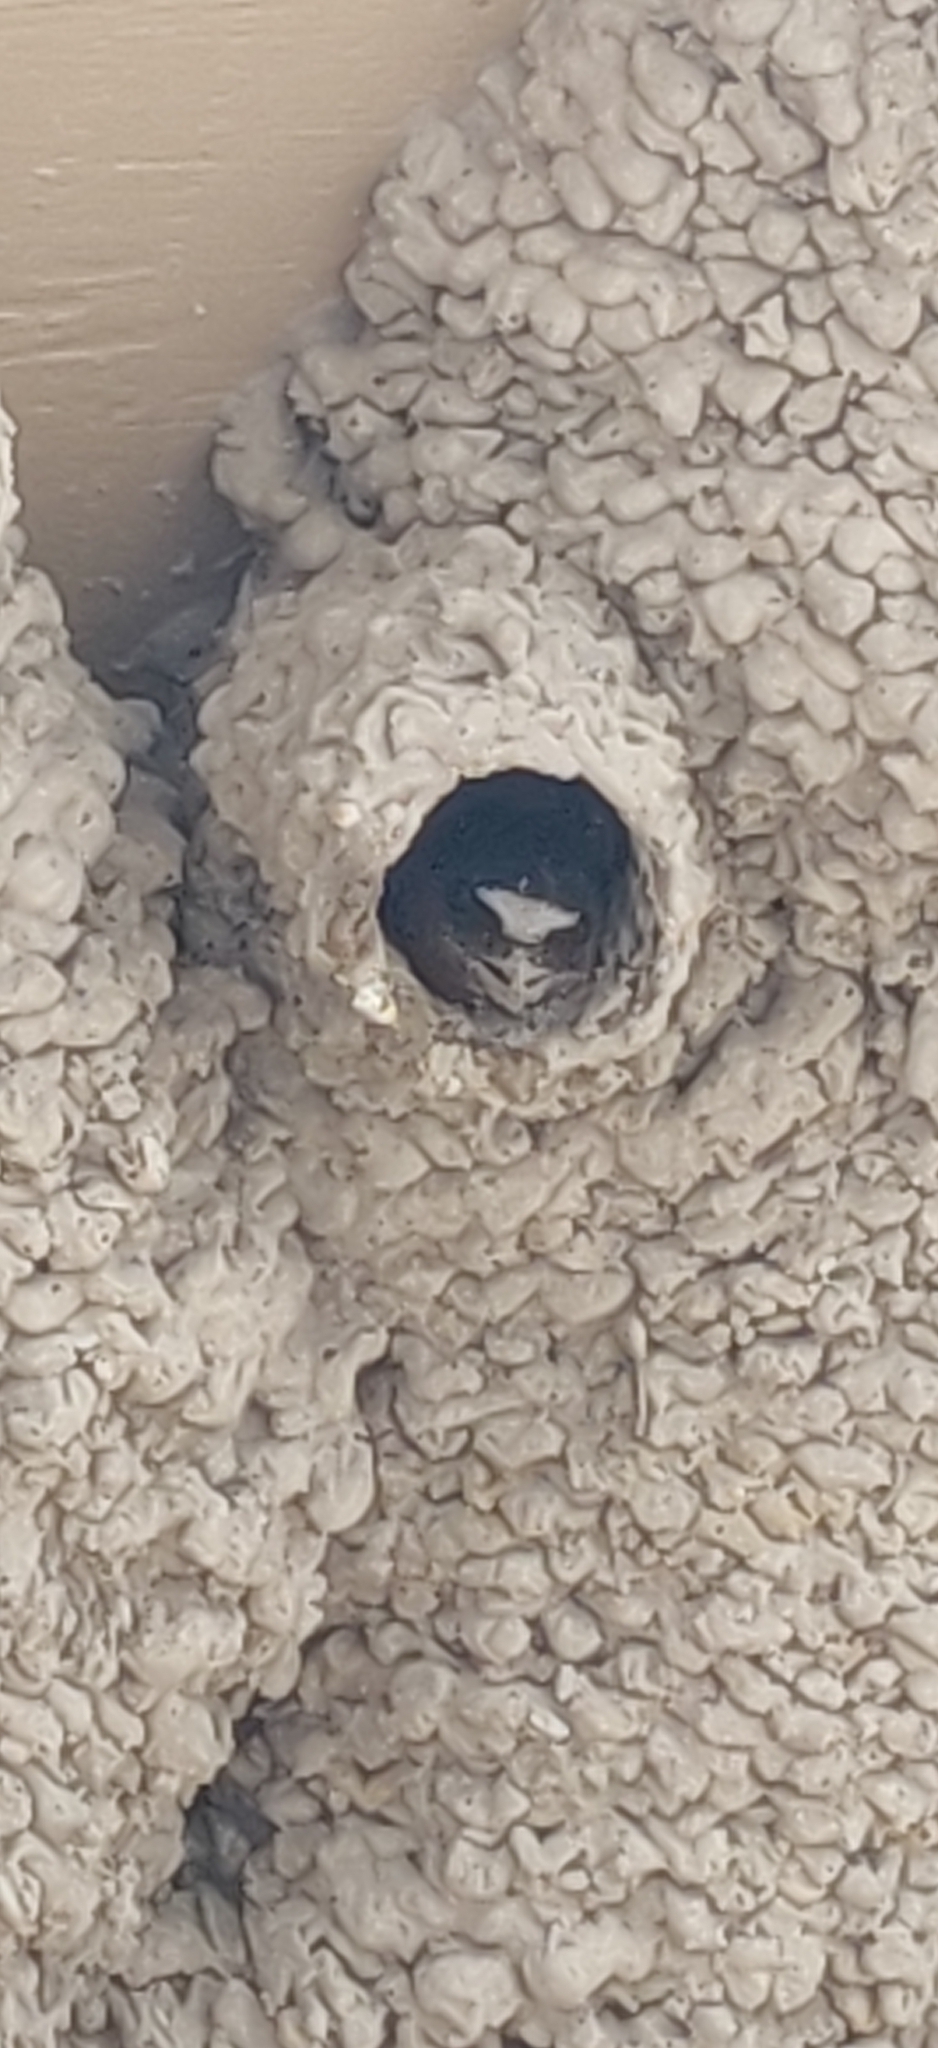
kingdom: Animalia
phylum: Chordata
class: Aves
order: Passeriformes
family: Hirundinidae
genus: Petrochelidon
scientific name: Petrochelidon pyrrhonota
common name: American cliff swallow
